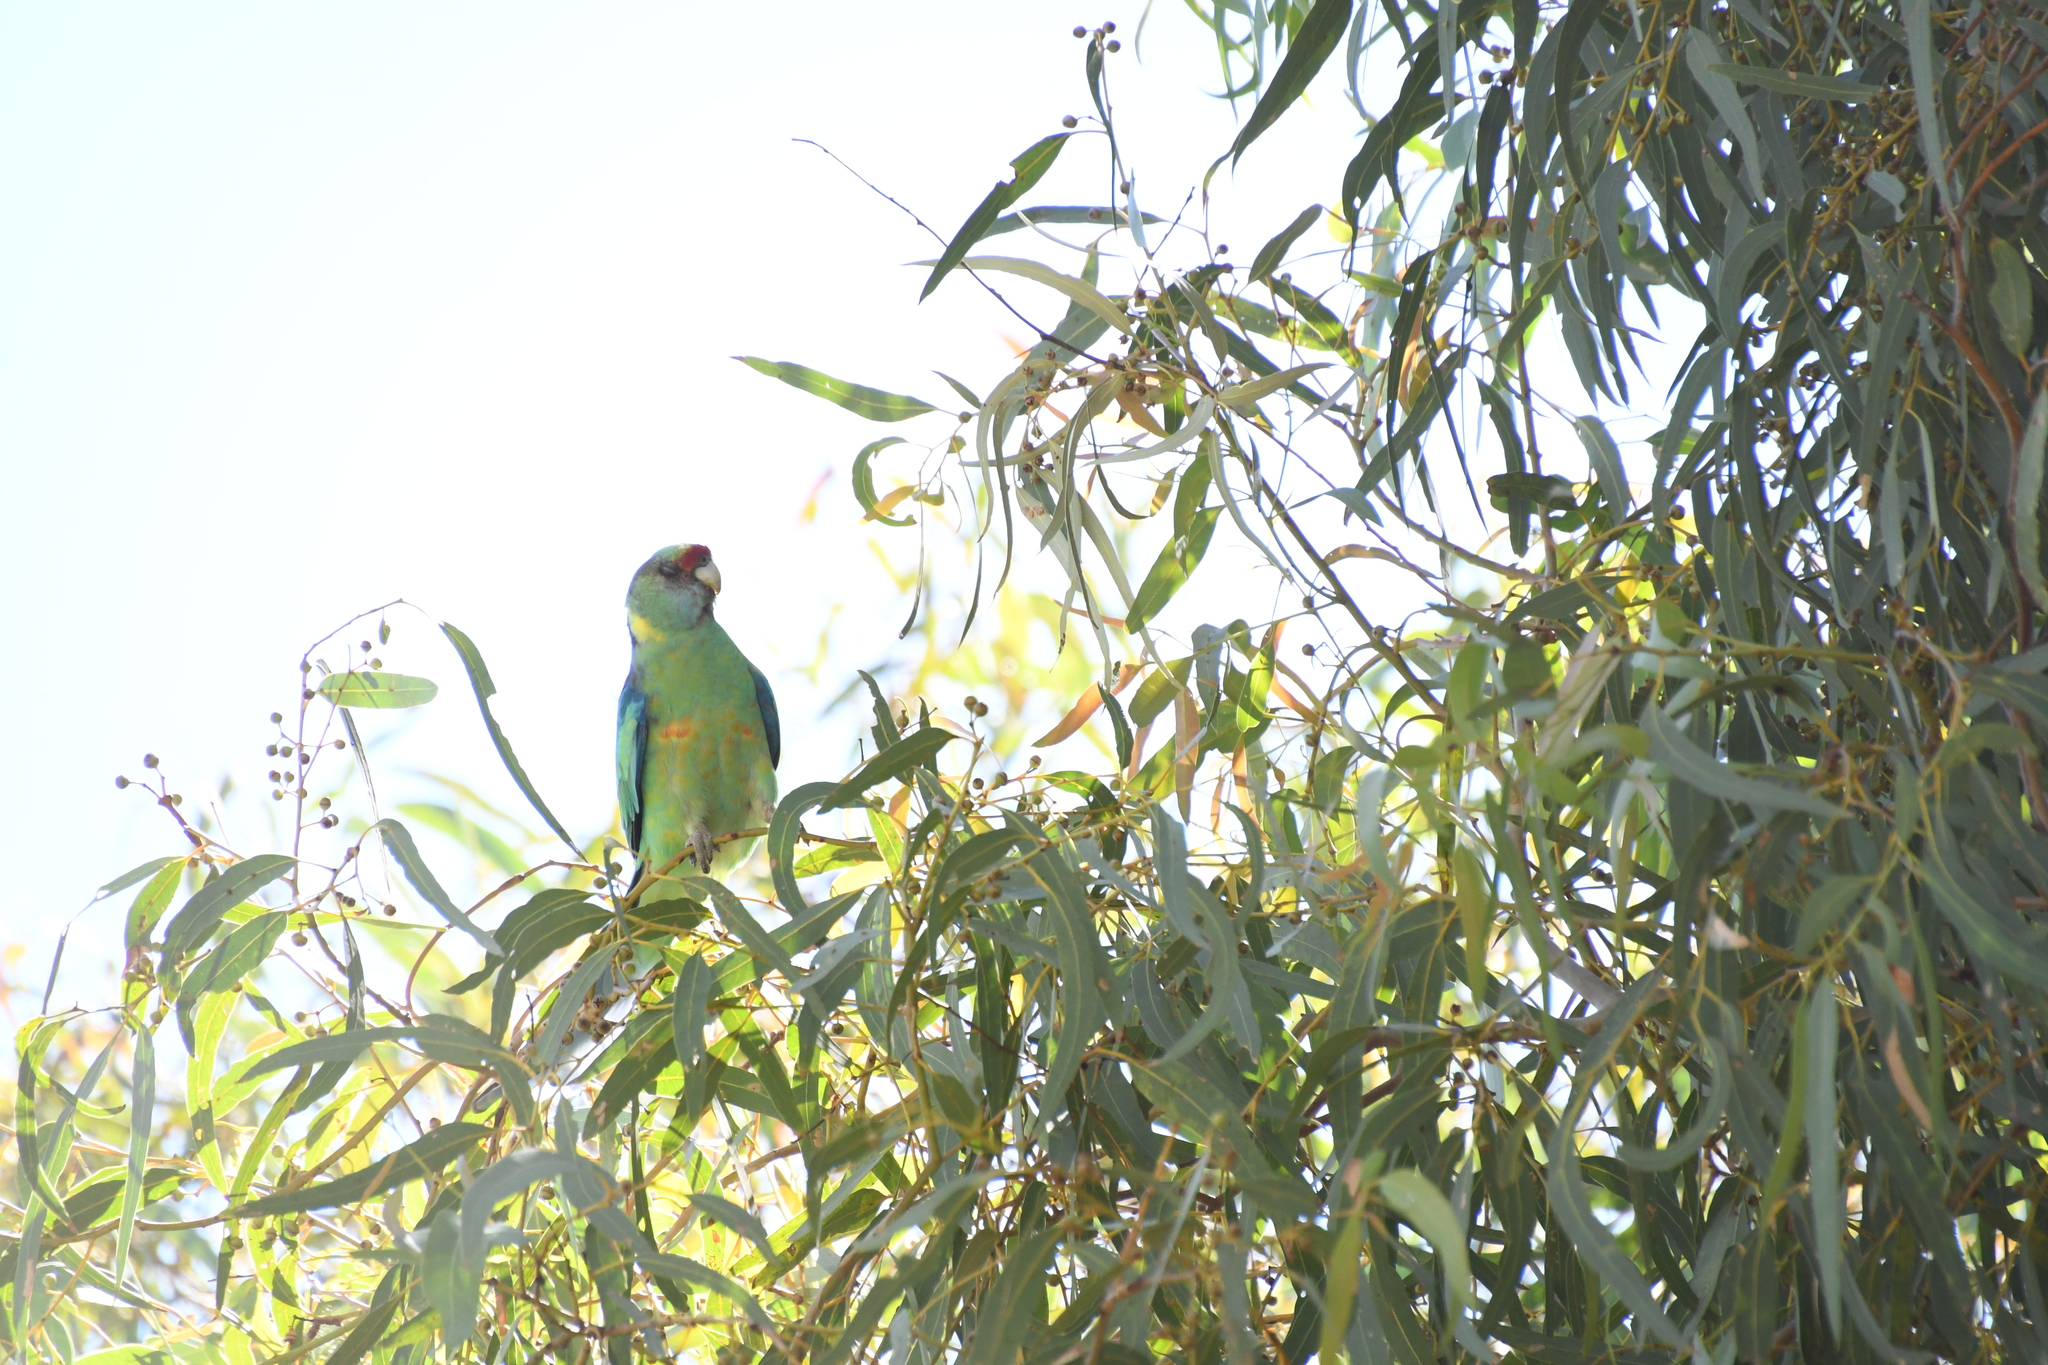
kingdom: Animalia
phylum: Chordata
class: Aves
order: Psittaciformes
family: Psittacidae
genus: Barnardius
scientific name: Barnardius zonarius
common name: Australian ringneck
